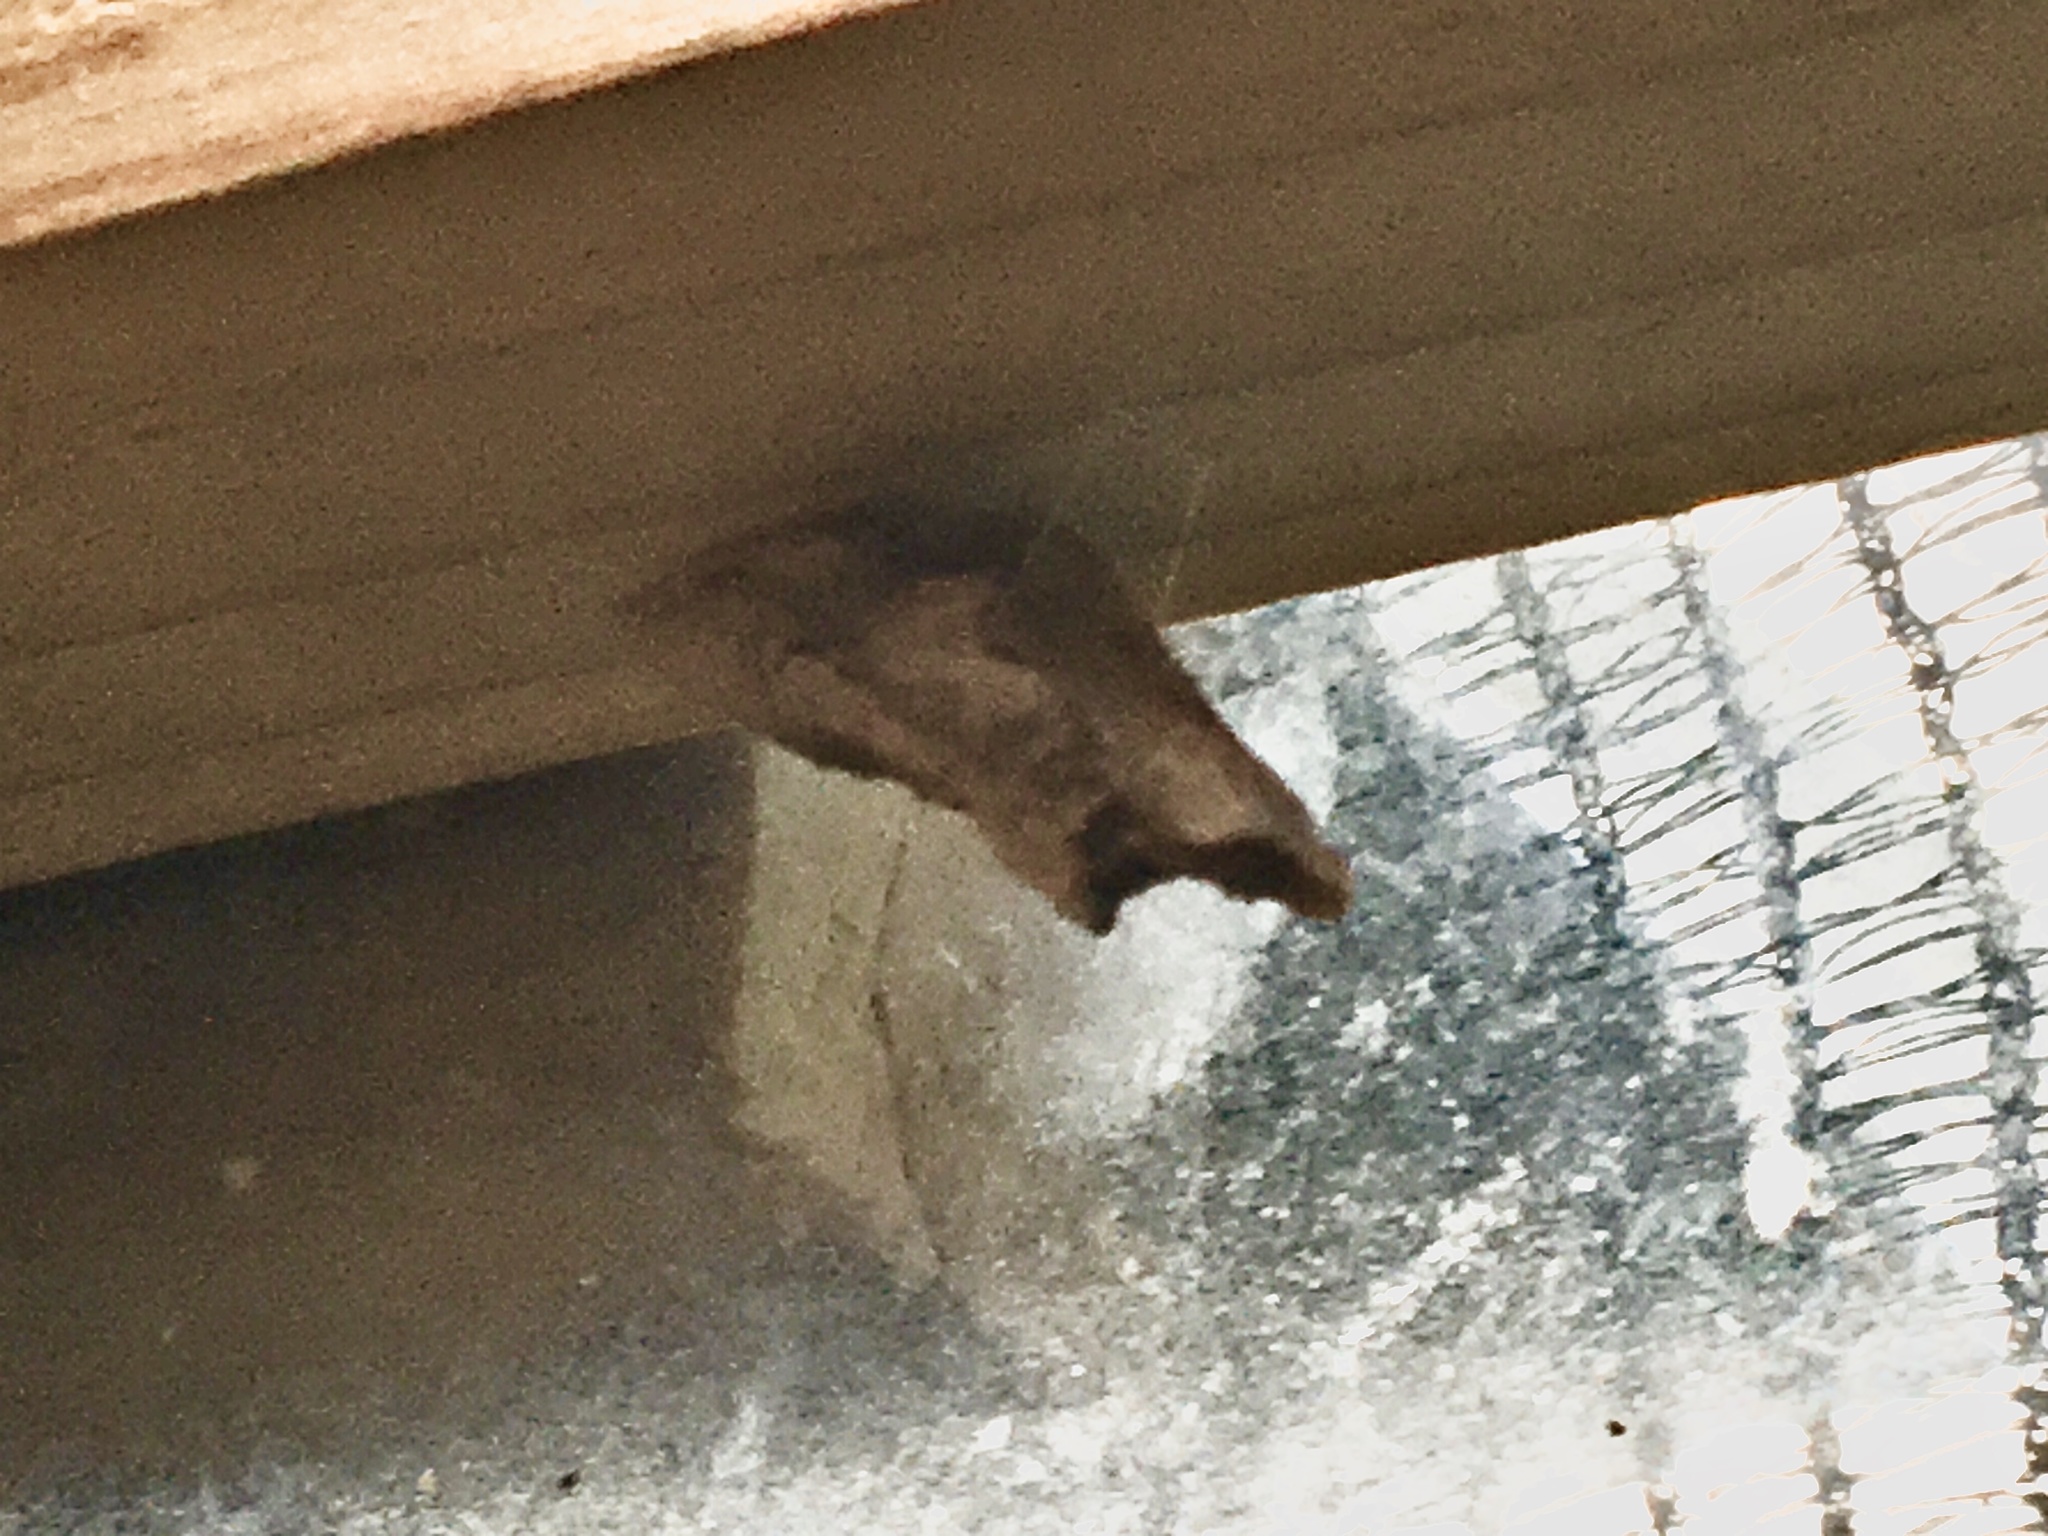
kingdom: Animalia
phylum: Arthropoda
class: Insecta
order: Lepidoptera
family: Papilionidae
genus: Papilio
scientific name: Papilio demodocus
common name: Christmas butterfly
